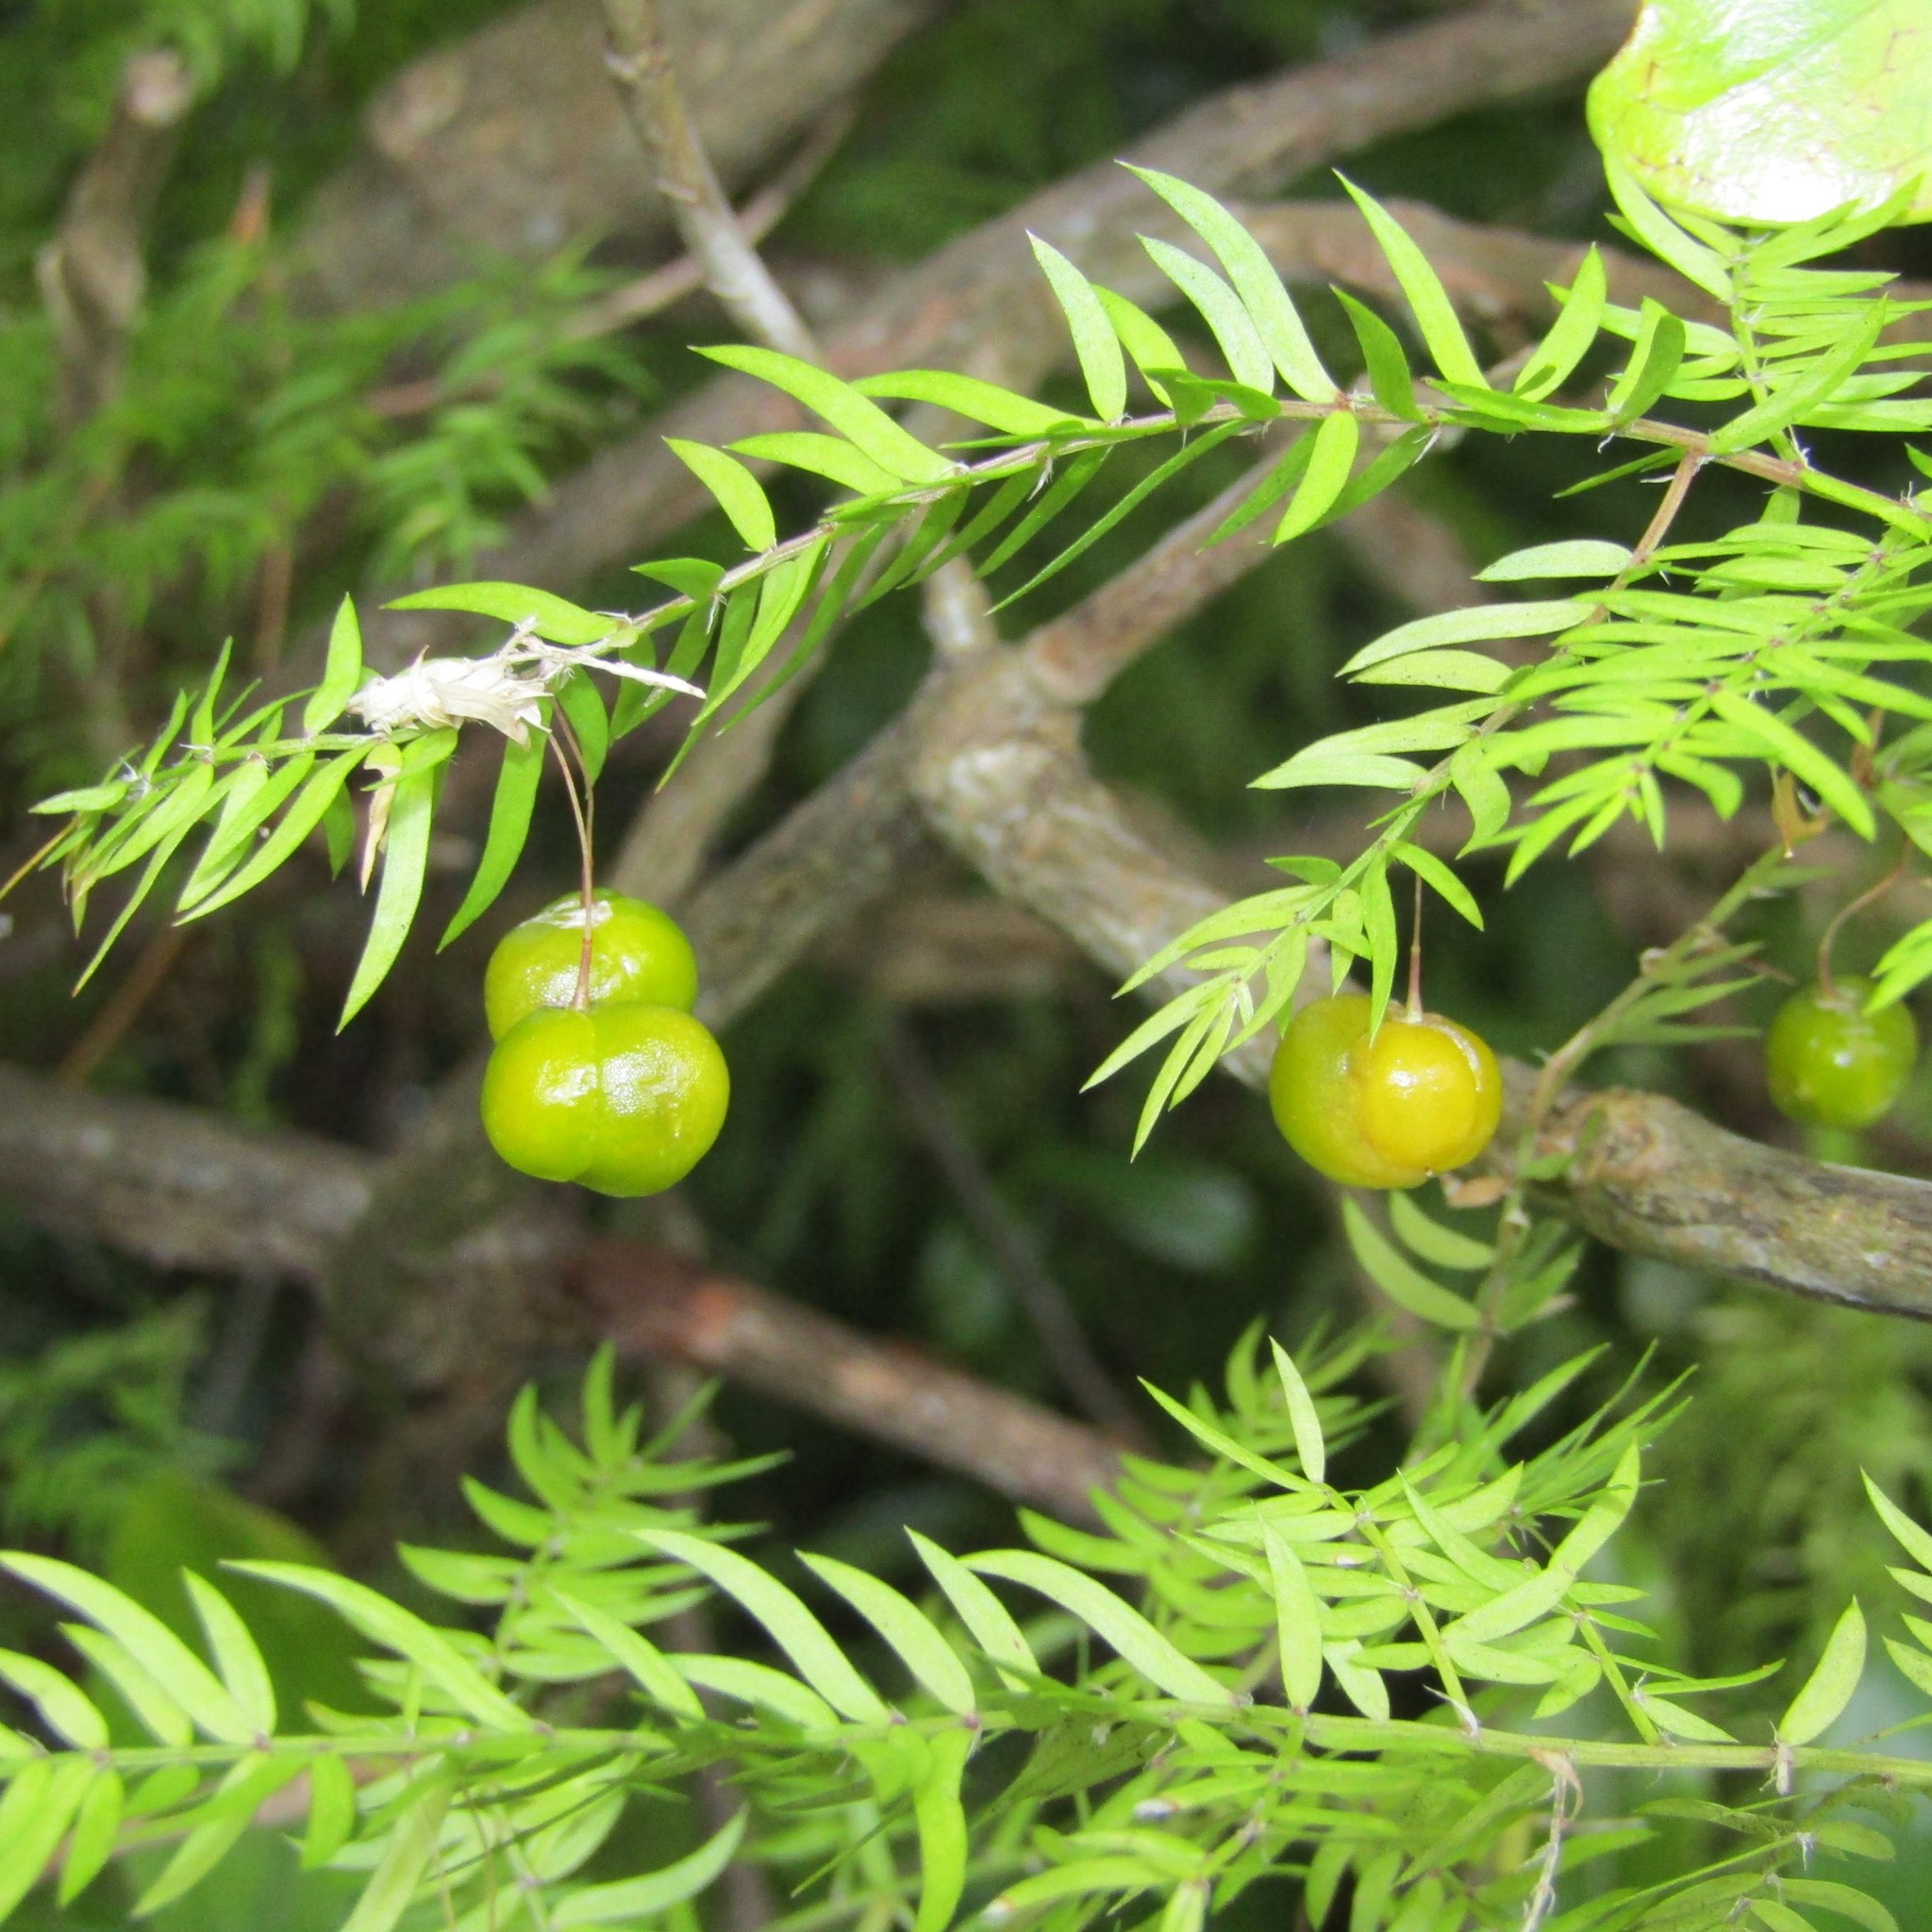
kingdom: Plantae
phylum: Tracheophyta
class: Liliopsida
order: Asparagales
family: Asparagaceae
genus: Asparagus
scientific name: Asparagus scandens
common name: Asparagus-fern
